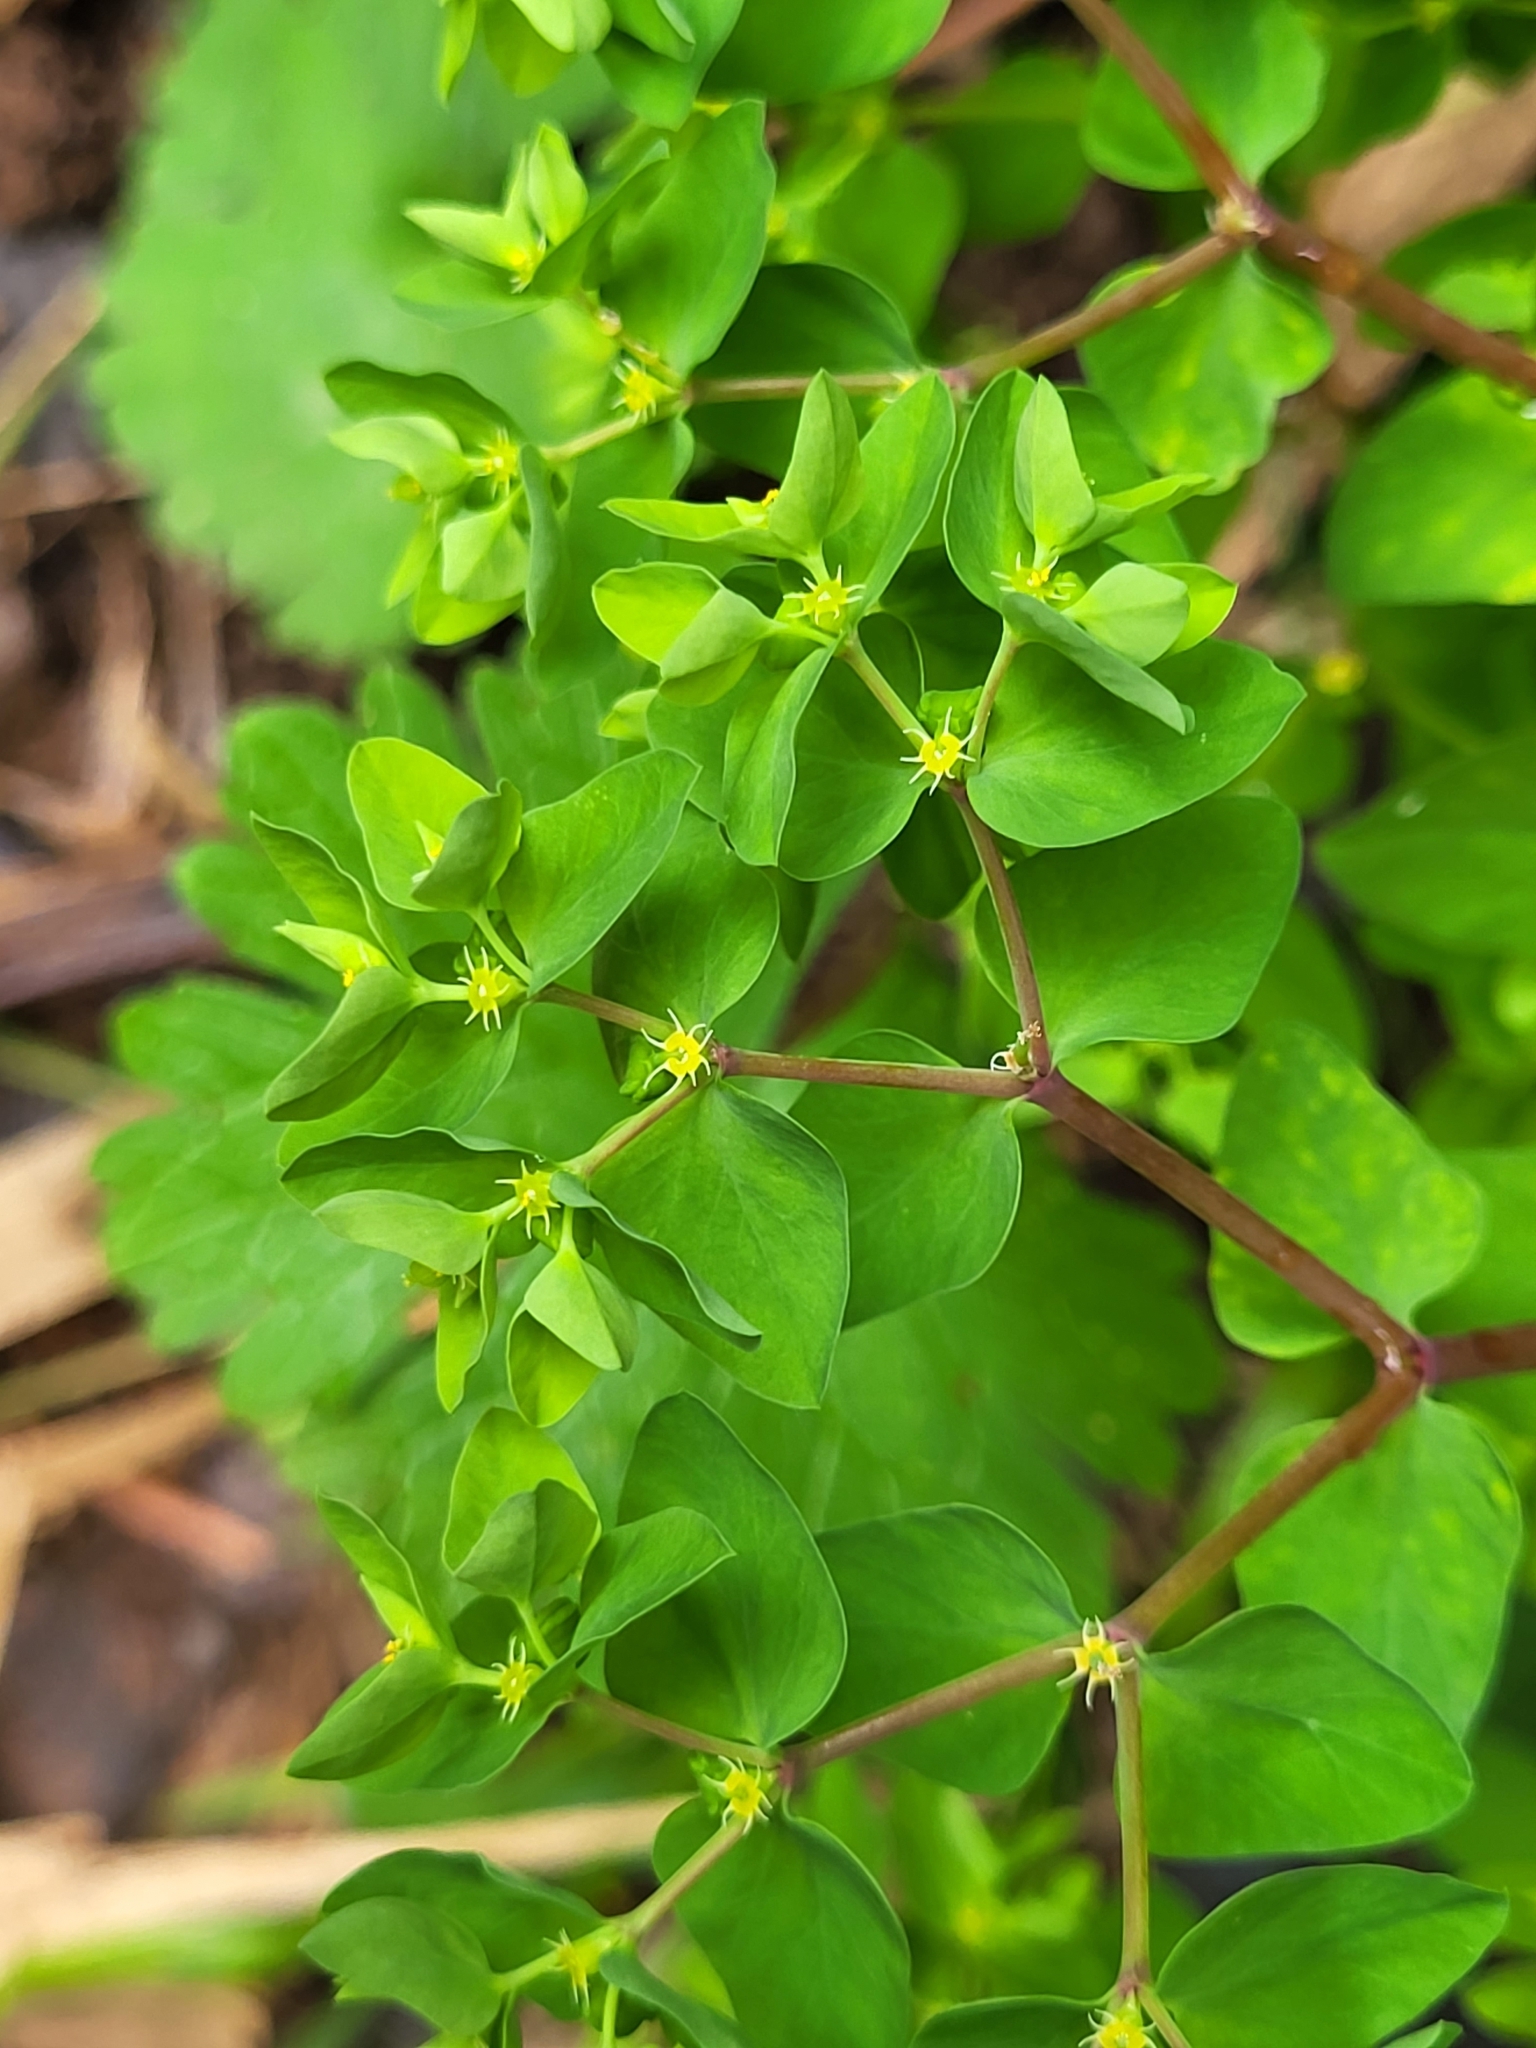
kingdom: Plantae
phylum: Tracheophyta
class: Magnoliopsida
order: Malpighiales
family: Euphorbiaceae
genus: Euphorbia
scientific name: Euphorbia peplus
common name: Petty spurge
